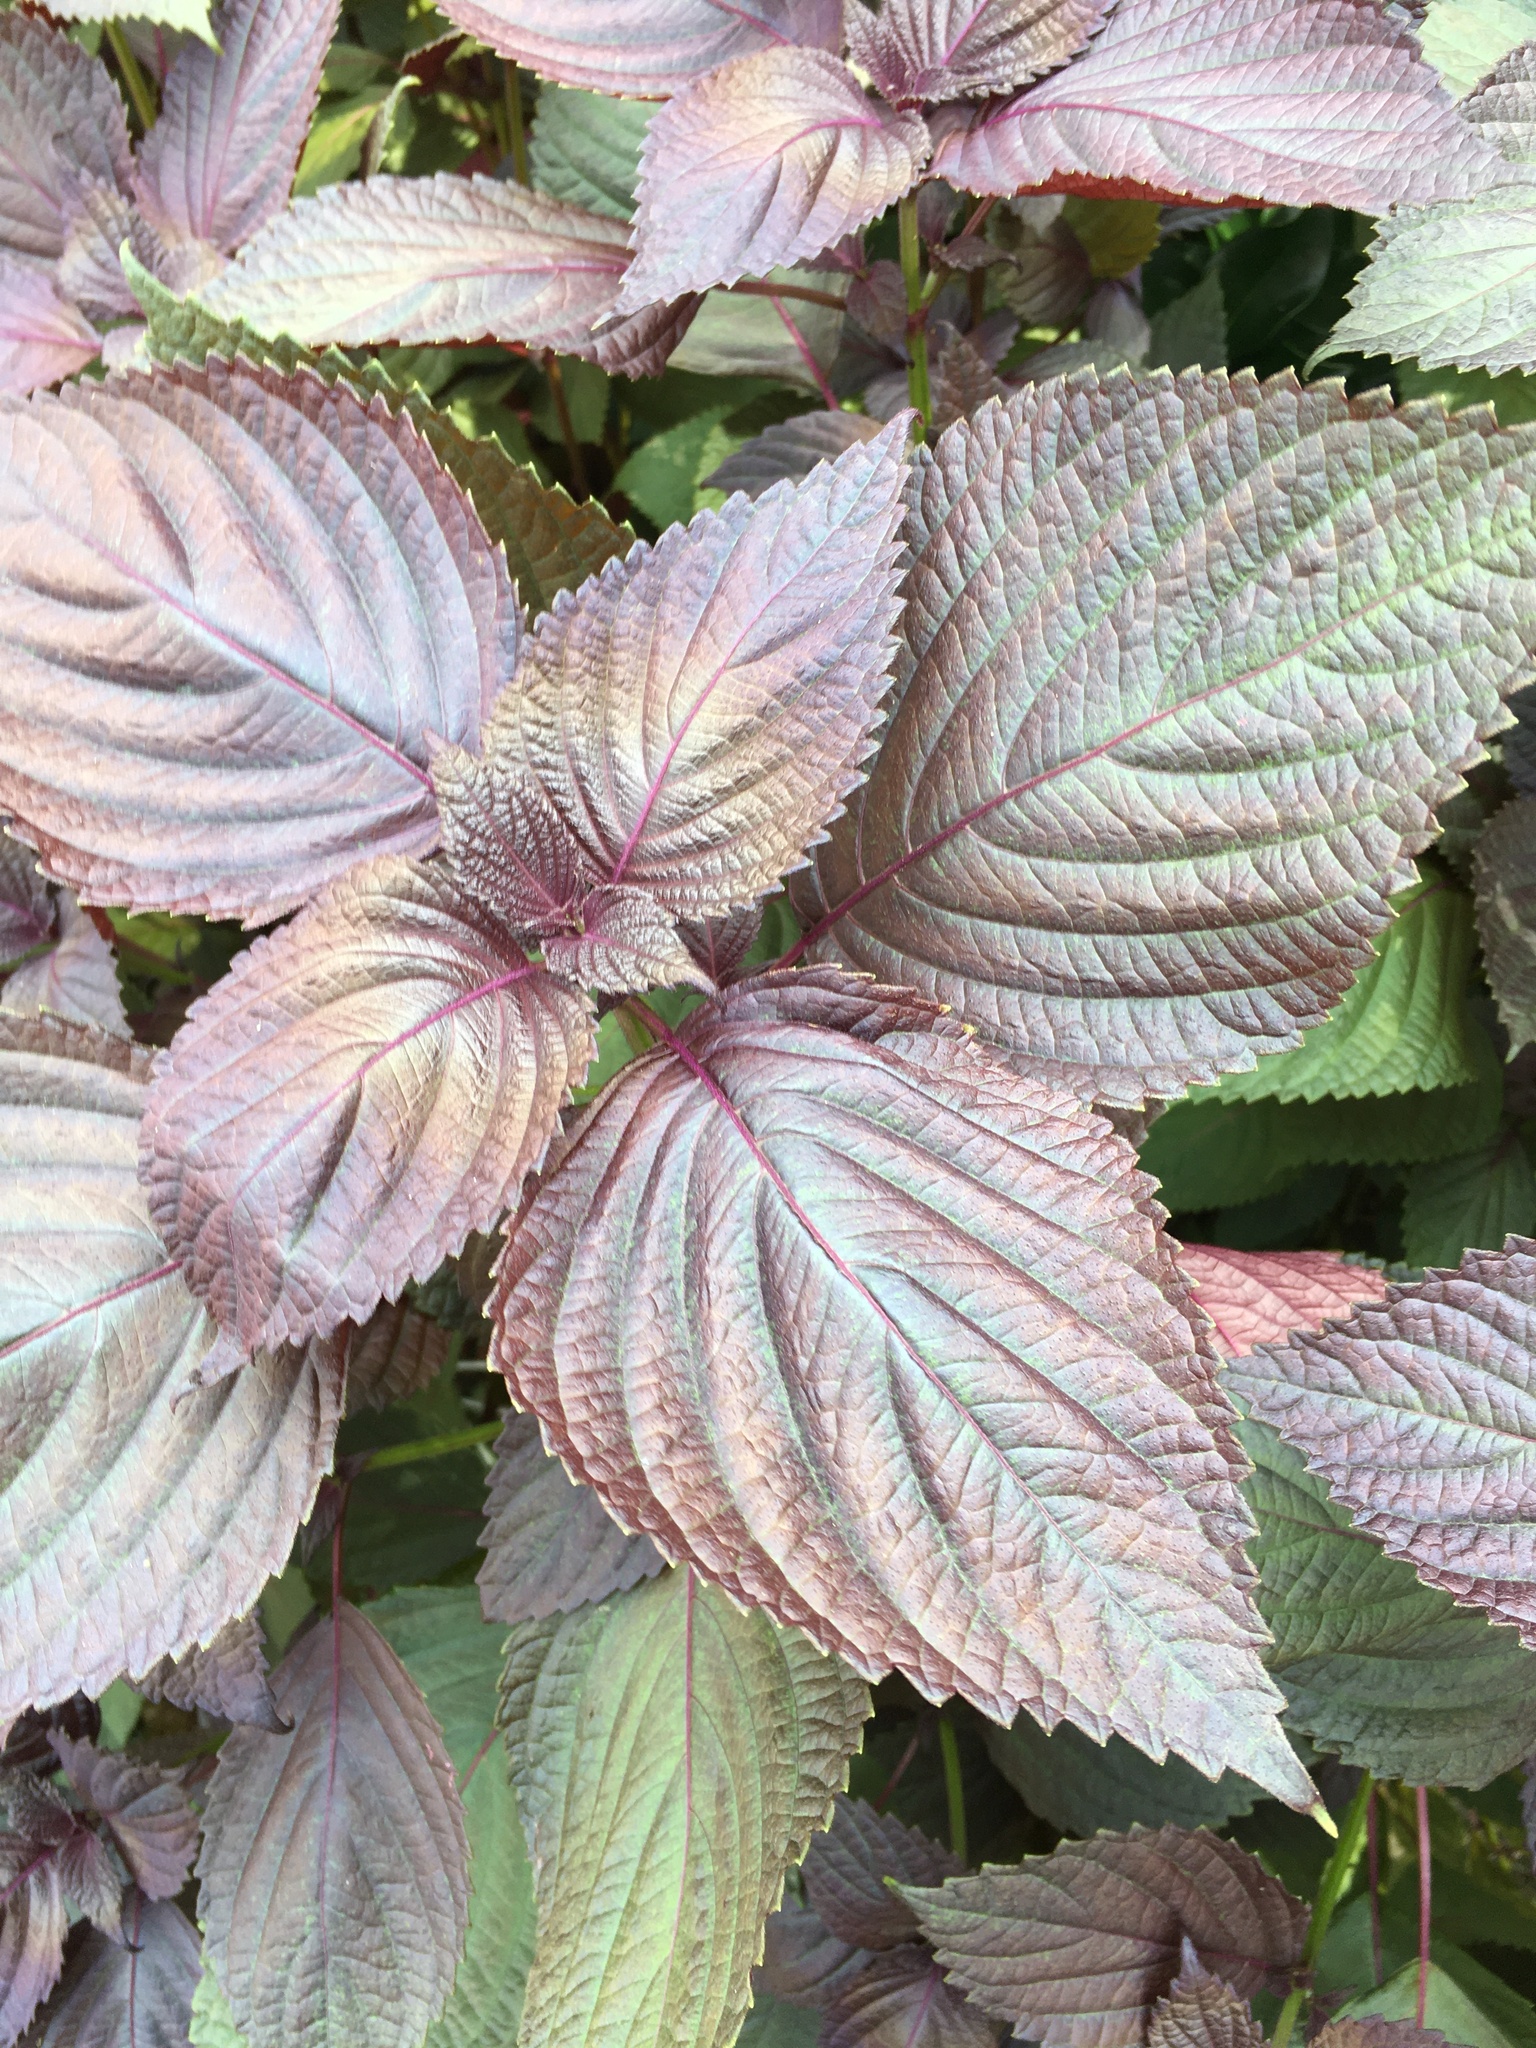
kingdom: Plantae
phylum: Tracheophyta
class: Magnoliopsida
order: Lamiales
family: Lamiaceae
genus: Perilla
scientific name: Perilla frutescens
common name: Perilla
